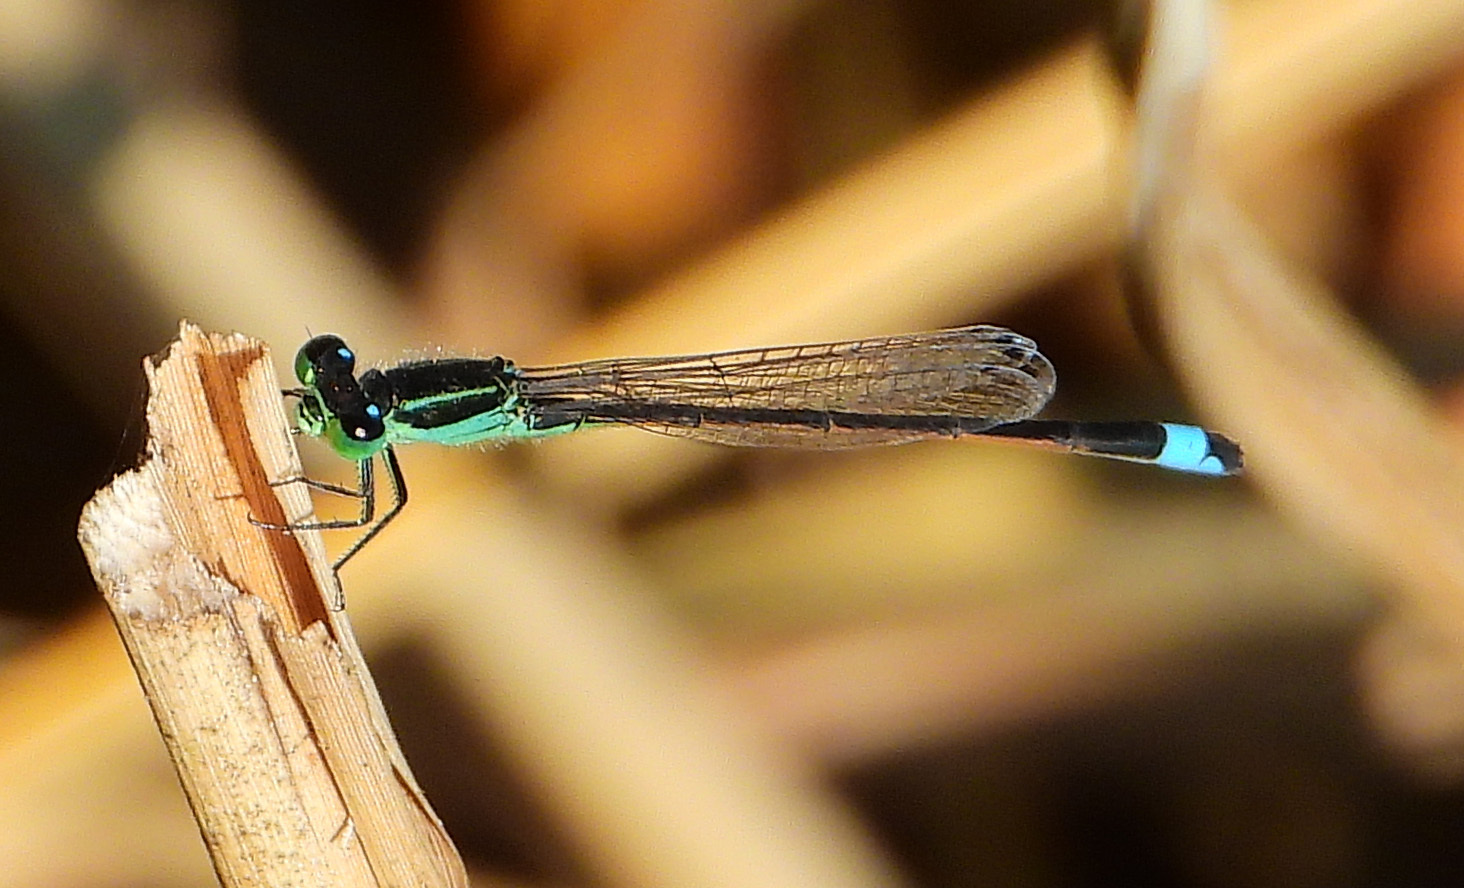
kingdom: Animalia
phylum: Arthropoda
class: Insecta
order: Odonata
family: Coenagrionidae
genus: Ischnura
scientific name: Ischnura ramburii
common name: Rambur's forktail
